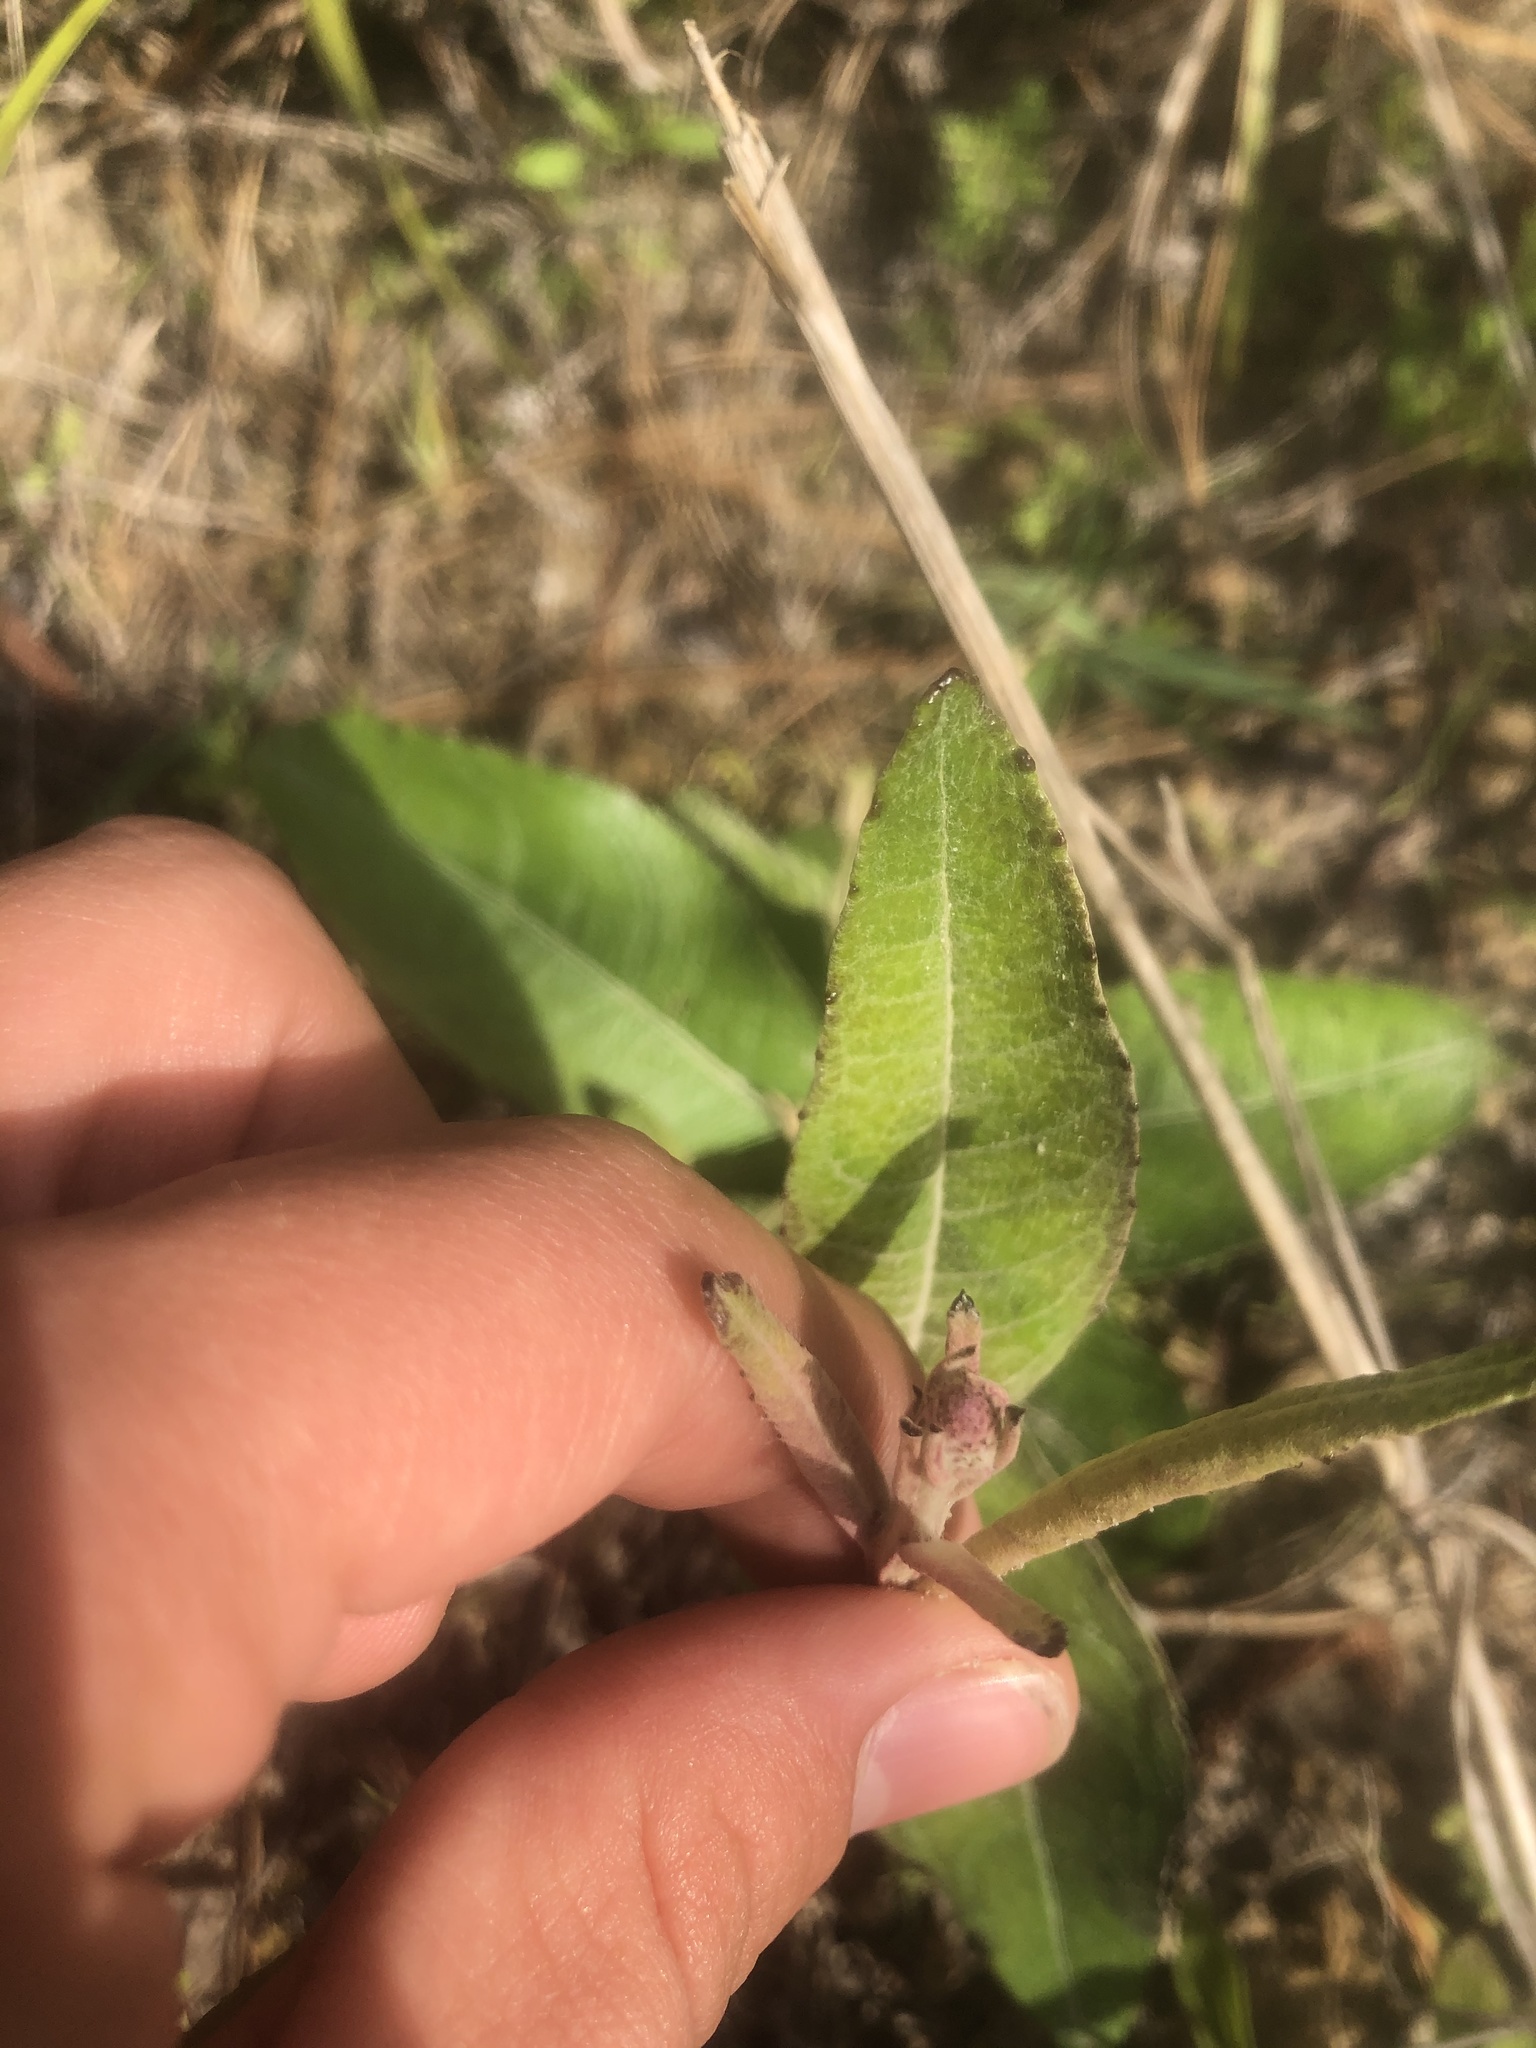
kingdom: Plantae
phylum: Tracheophyta
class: Magnoliopsida
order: Asterales
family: Asteraceae
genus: Pterocaulon
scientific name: Pterocaulon pycnostachyum
